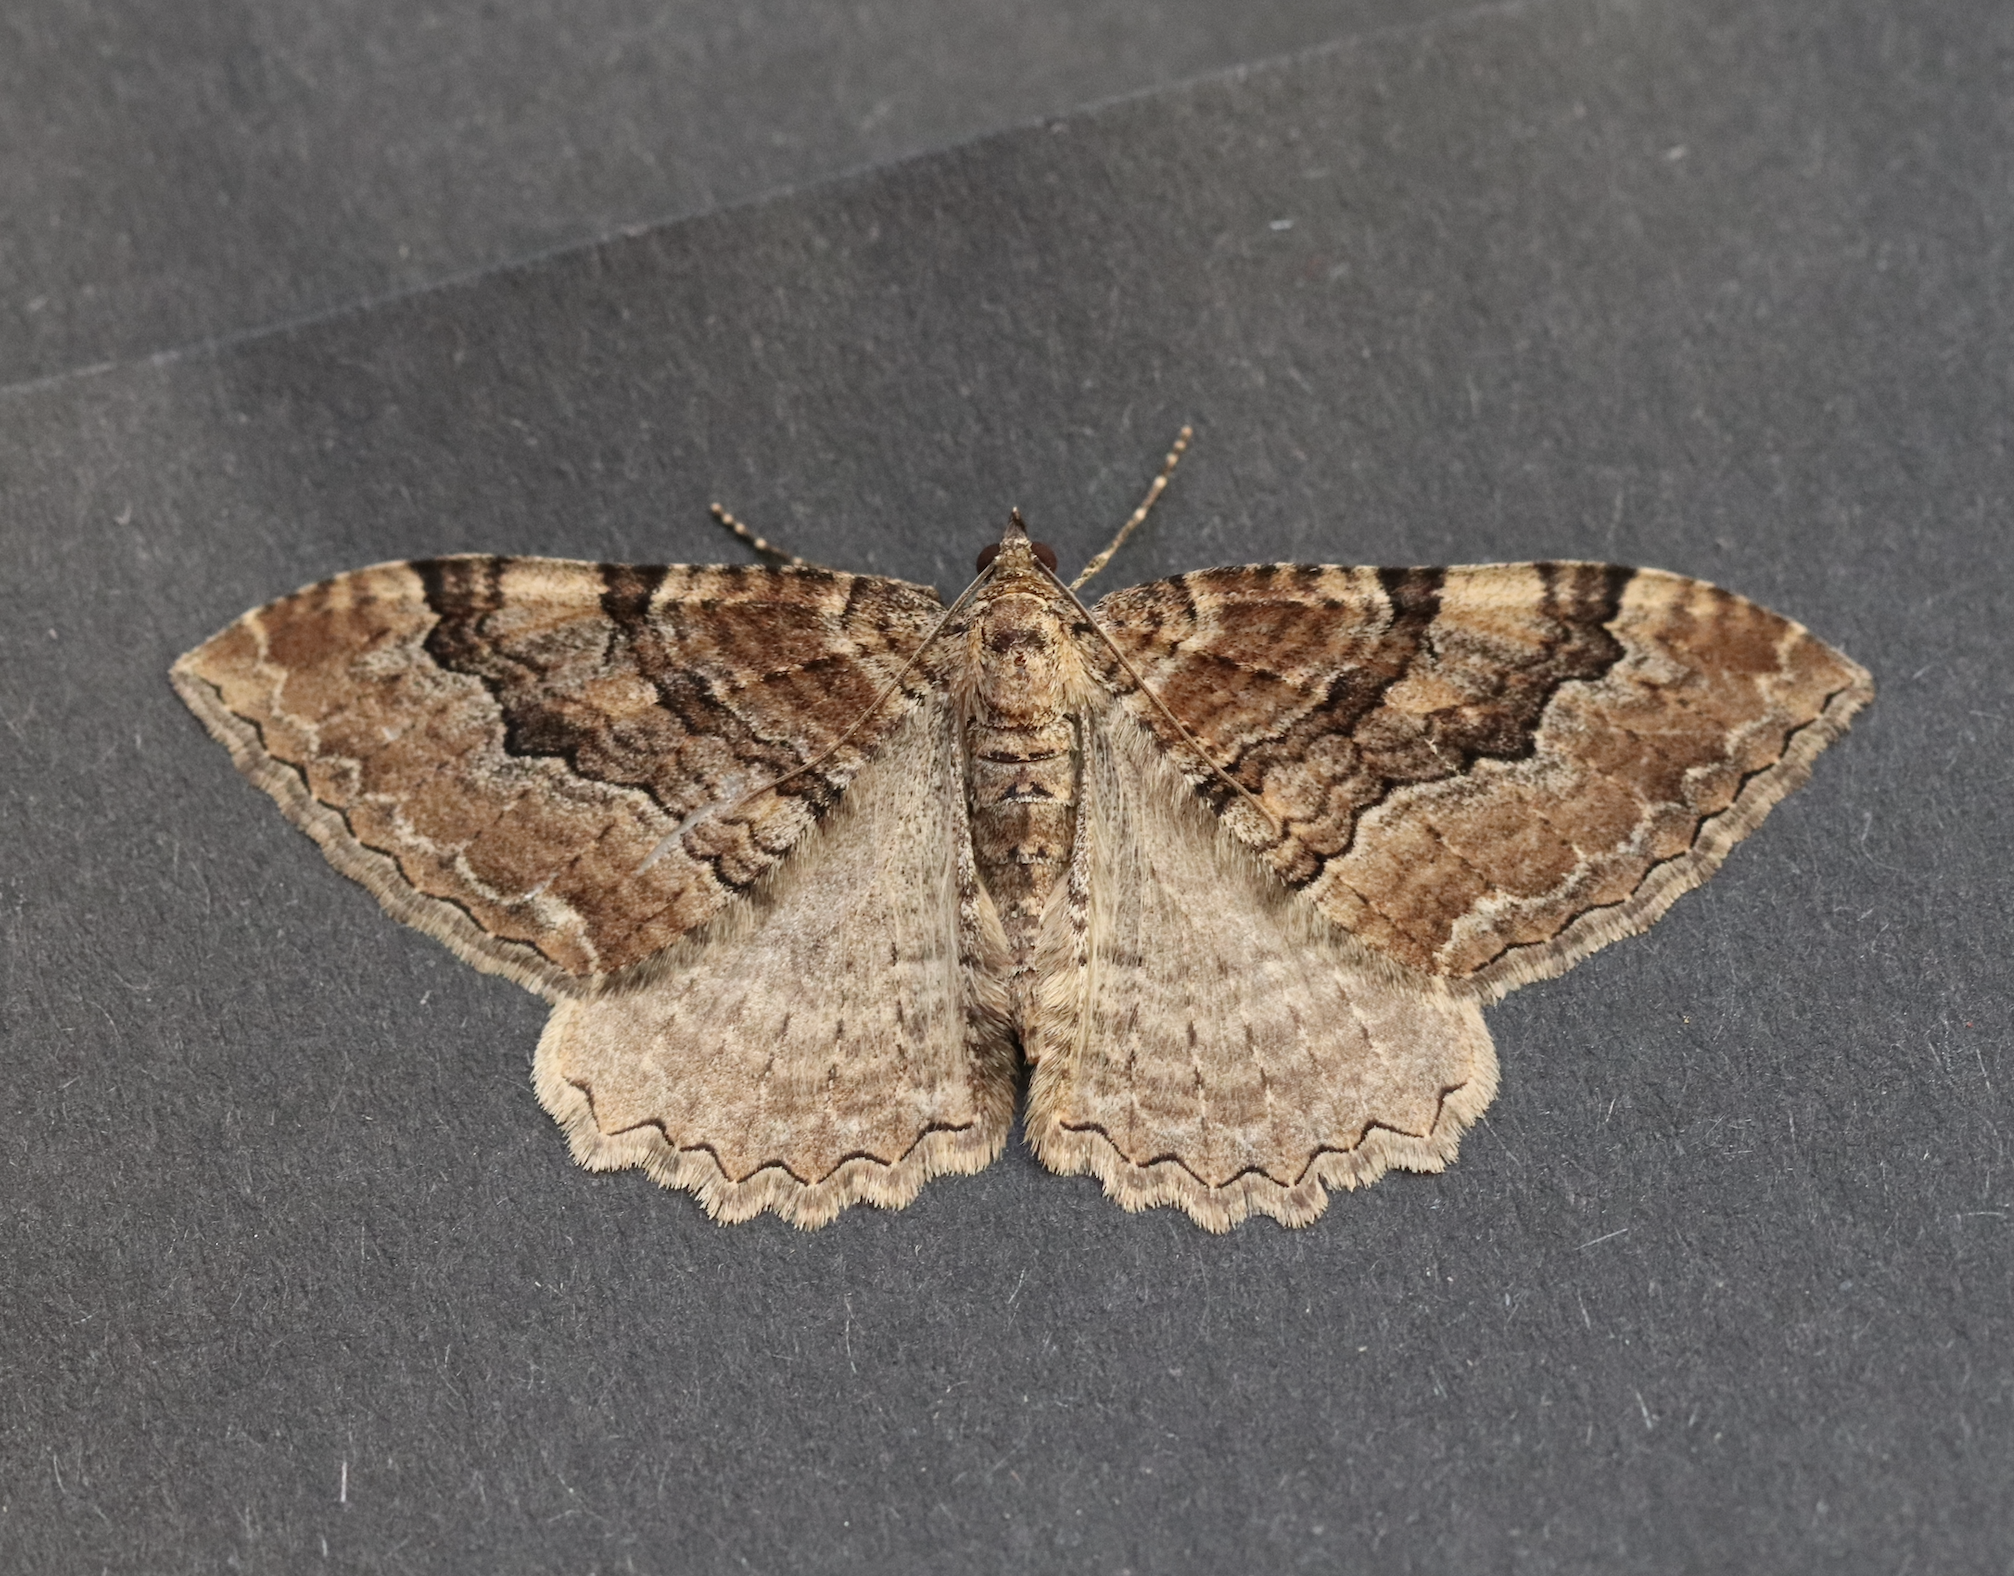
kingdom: Animalia
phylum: Arthropoda
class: Insecta
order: Lepidoptera
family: Geometridae
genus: Rheumaptera
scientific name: Rheumaptera Hydria cervinalis
